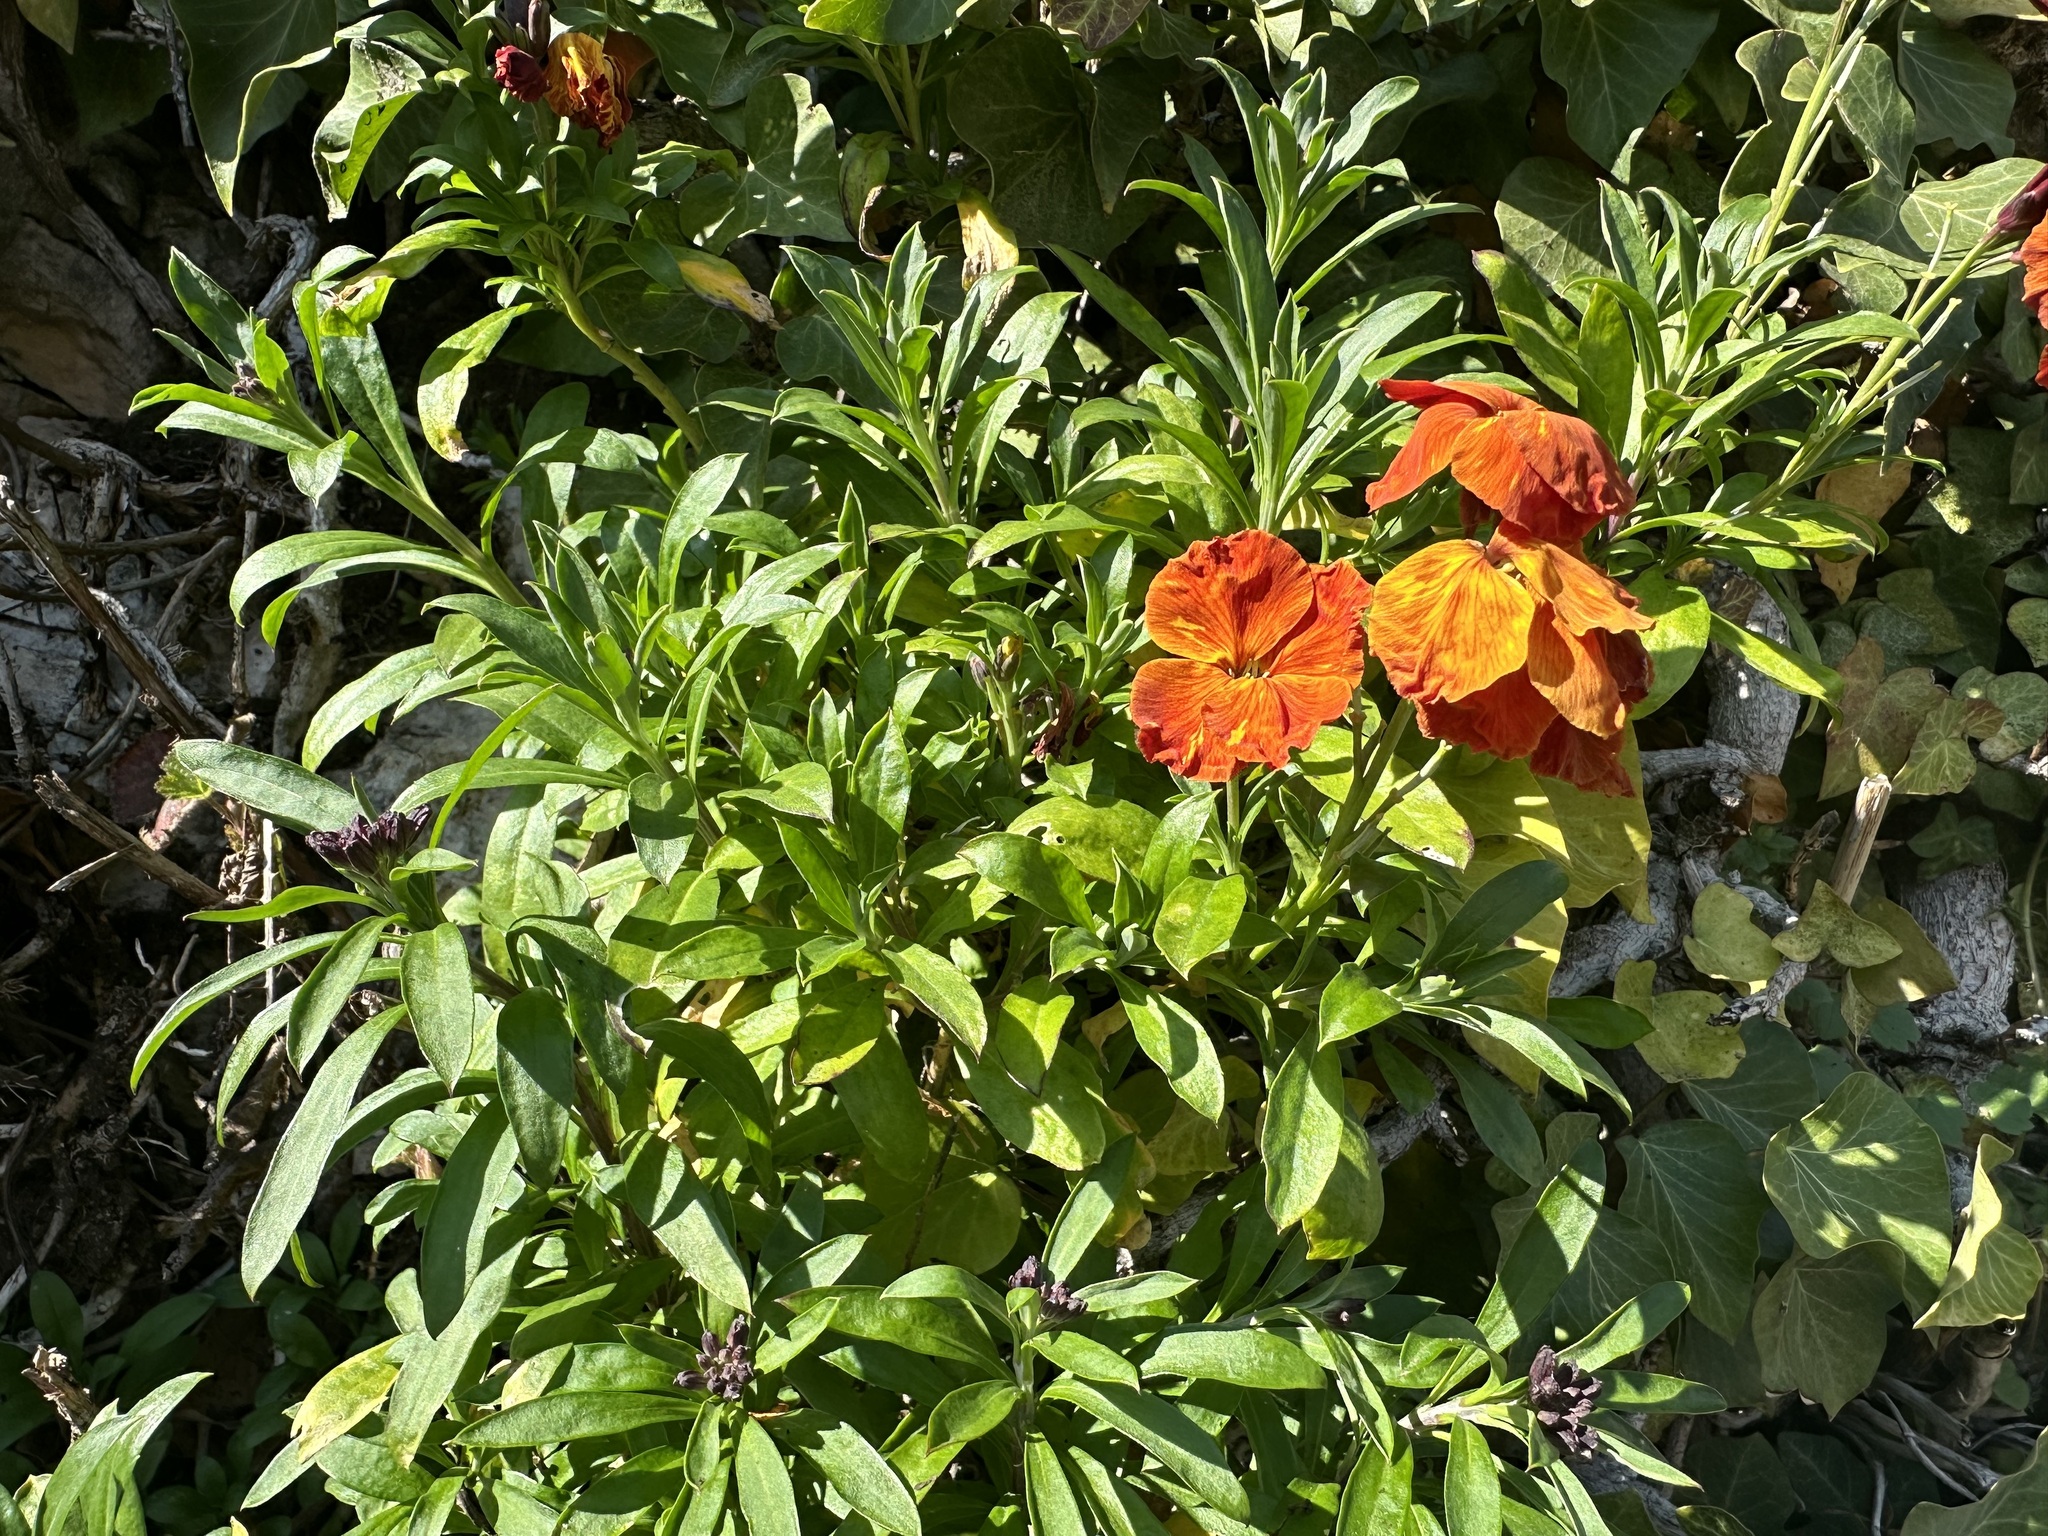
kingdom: Plantae
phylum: Tracheophyta
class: Magnoliopsida
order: Brassicales
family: Brassicaceae
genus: Erysimum
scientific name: Erysimum cheiri
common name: Wallflower
